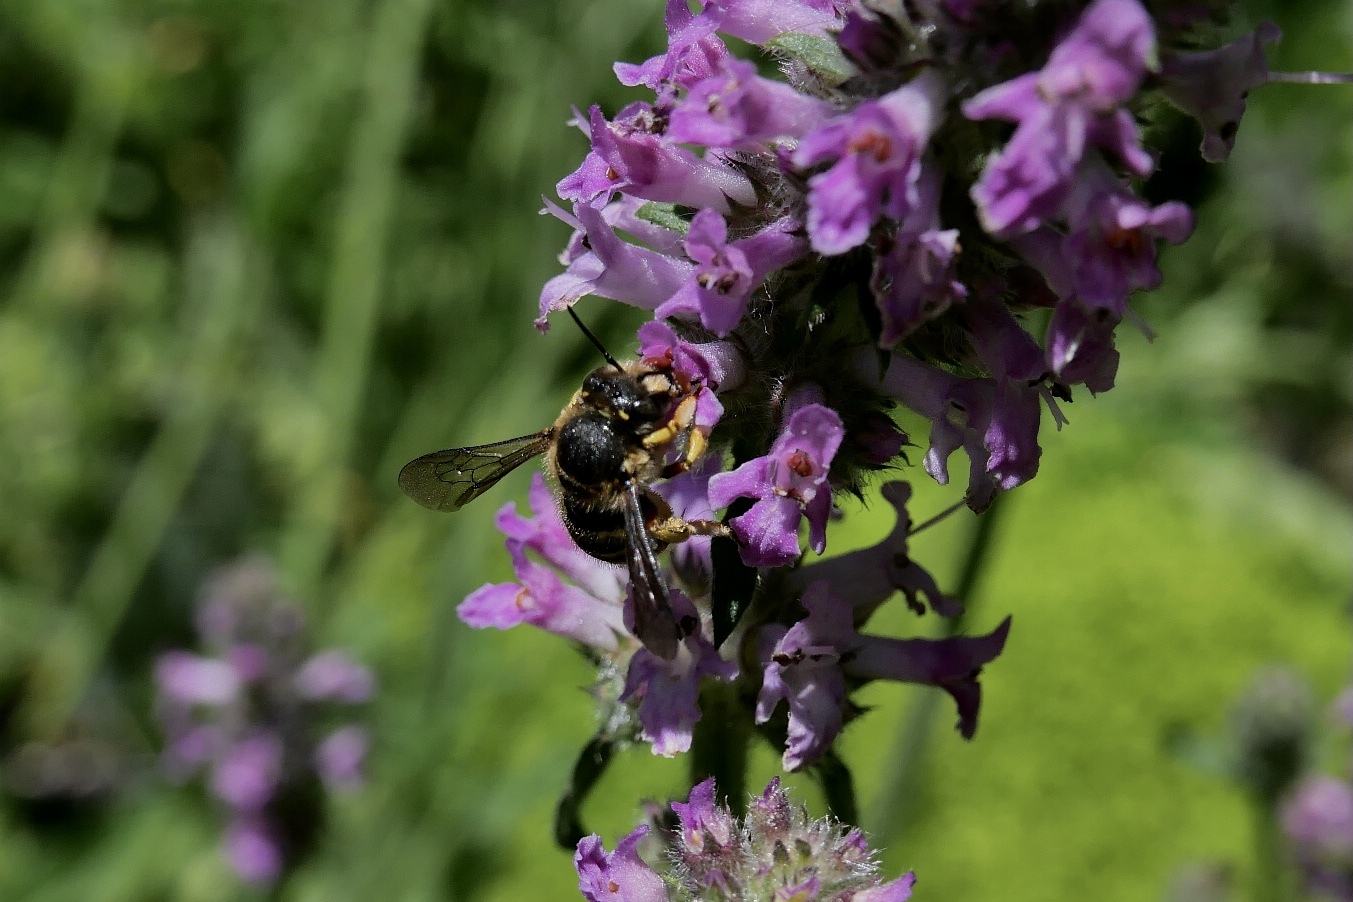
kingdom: Animalia
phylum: Arthropoda
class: Insecta
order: Hymenoptera
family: Megachilidae
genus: Anthidium
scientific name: Anthidium manicatum
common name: Wool carder bee
